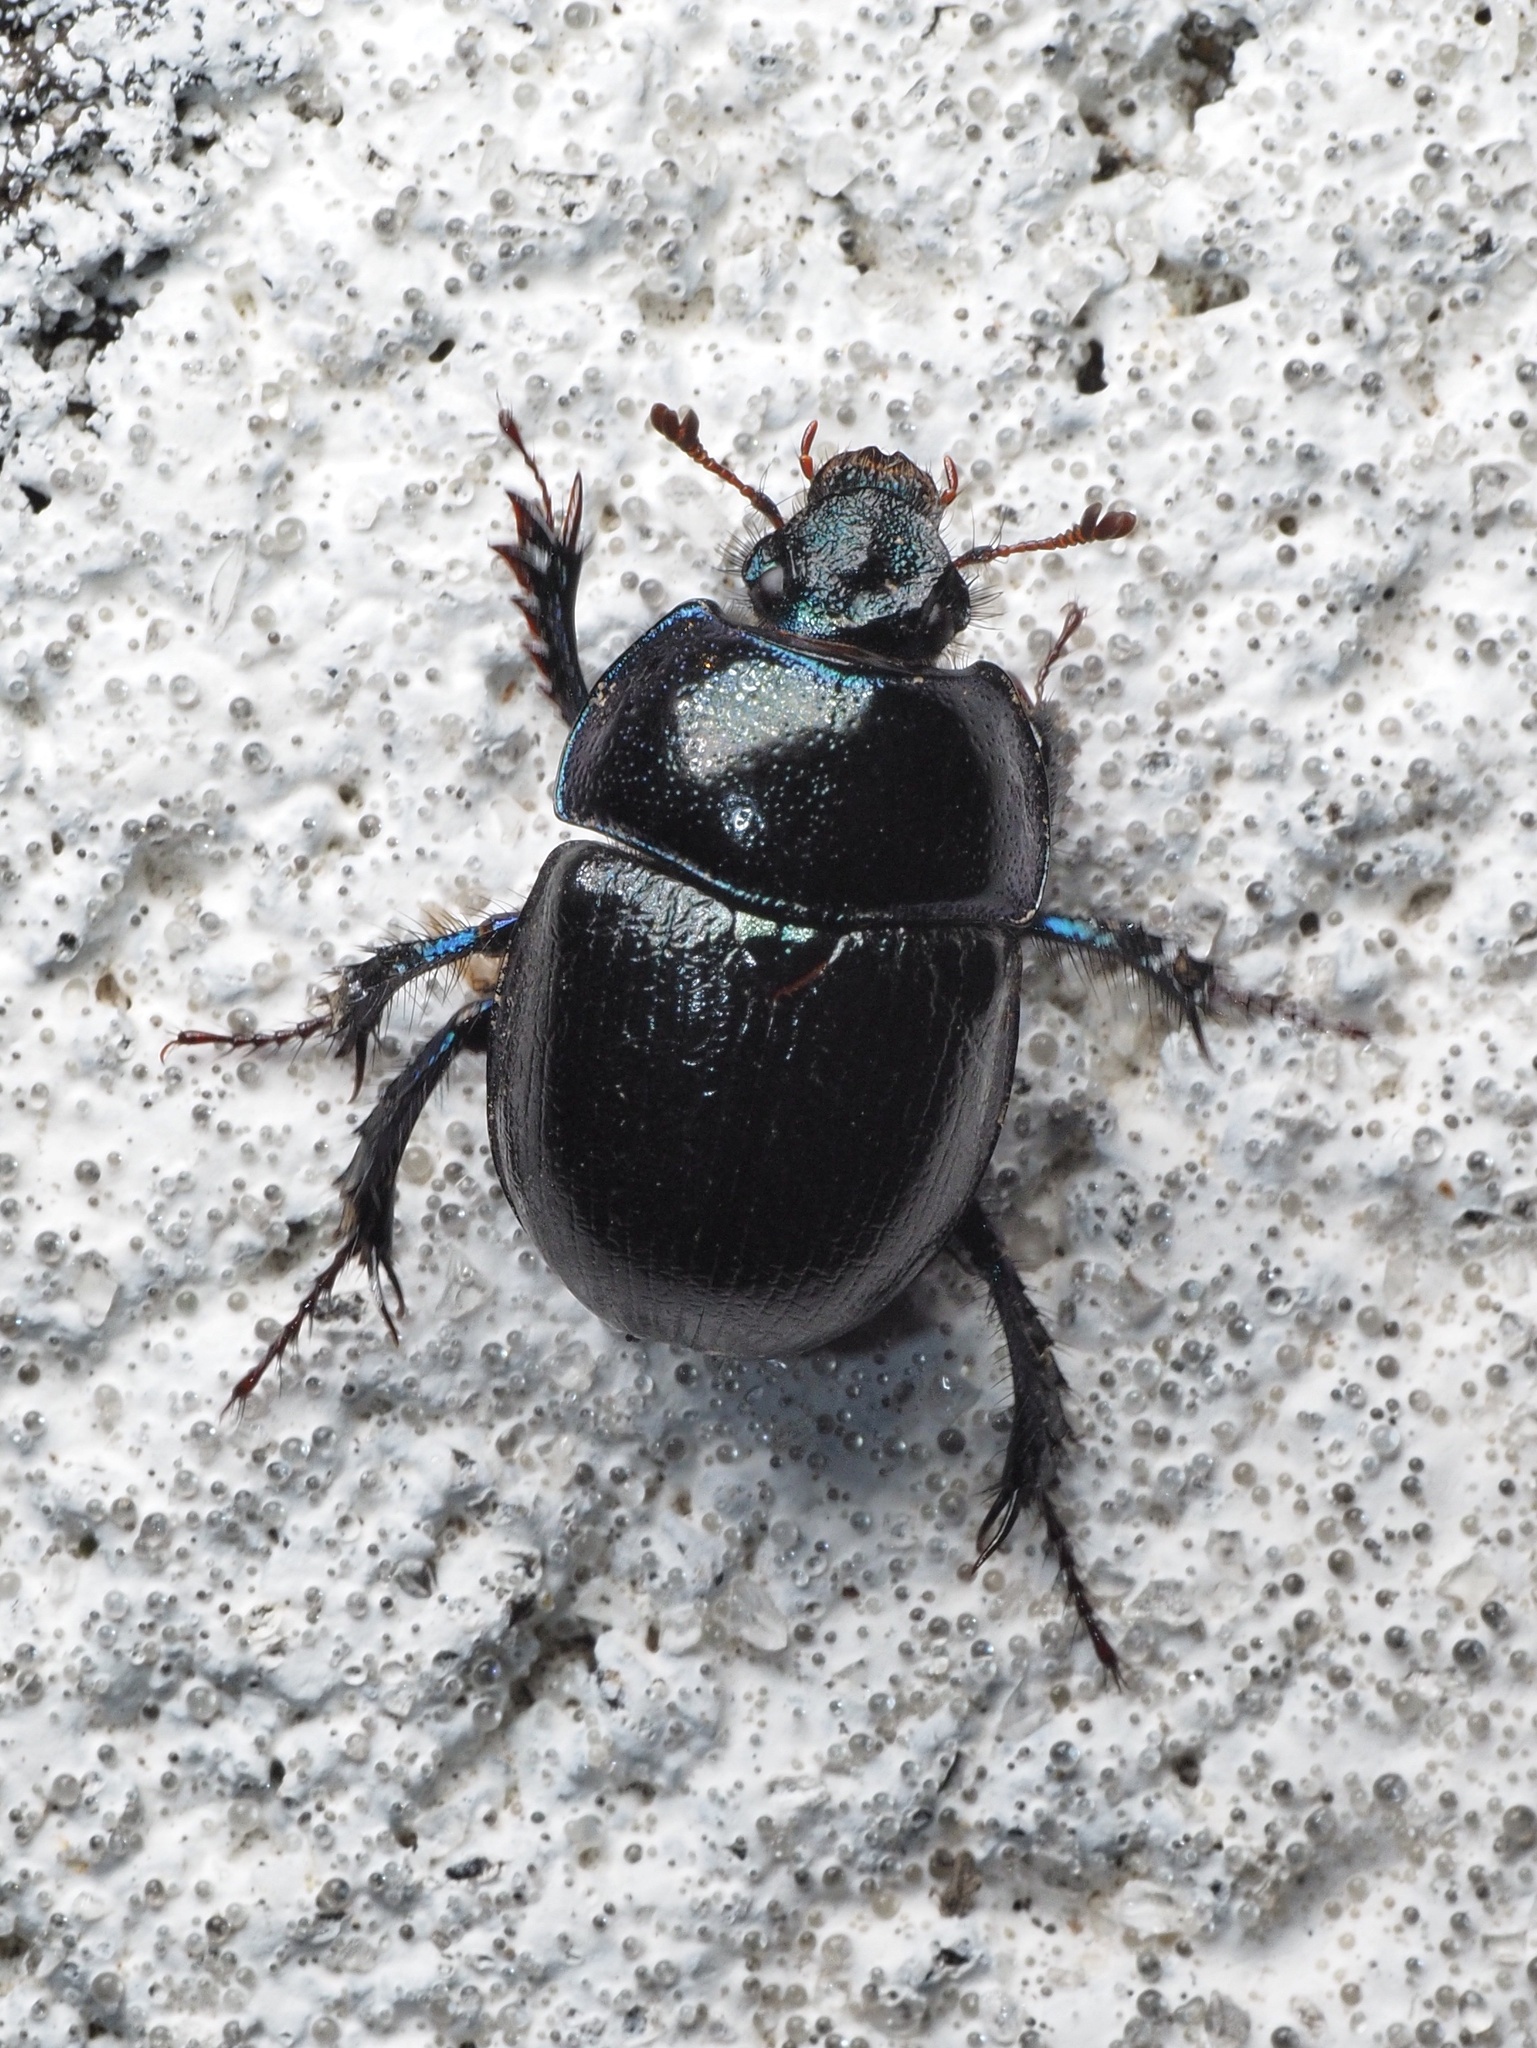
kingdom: Animalia
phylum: Arthropoda
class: Insecta
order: Coleoptera
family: Geotrupidae
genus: Anoplotrupes
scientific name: Anoplotrupes stercorosus
